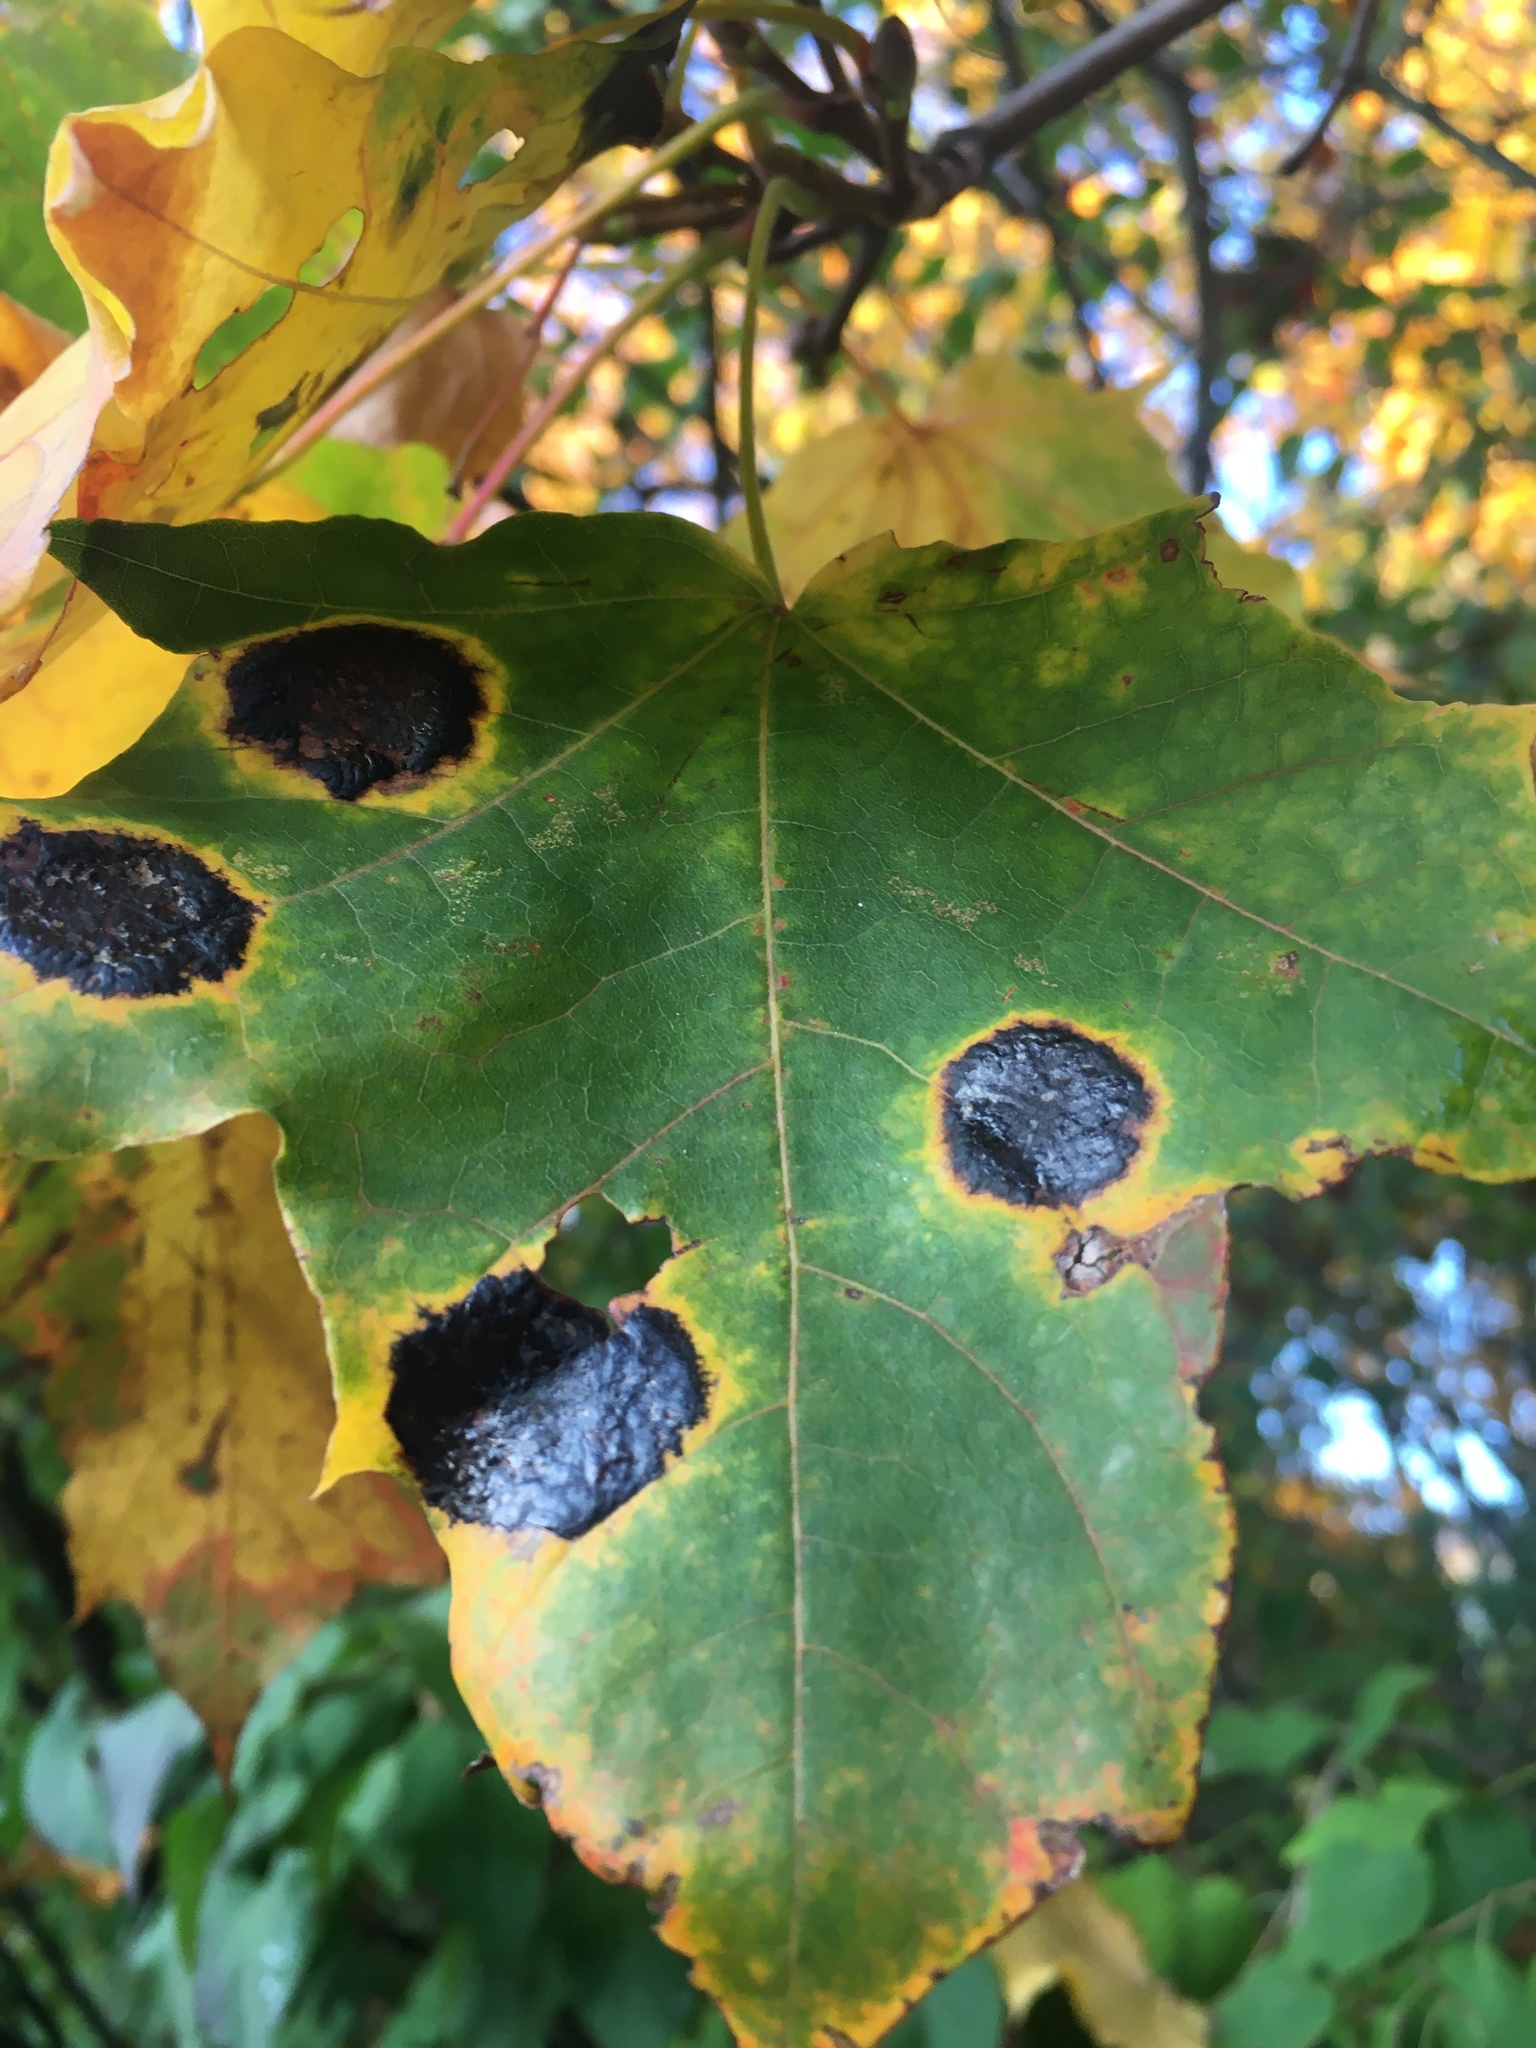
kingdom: Fungi
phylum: Ascomycota
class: Leotiomycetes
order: Rhytismatales
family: Rhytismataceae
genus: Rhytisma
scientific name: Rhytisma acerinum
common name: European tar spot
